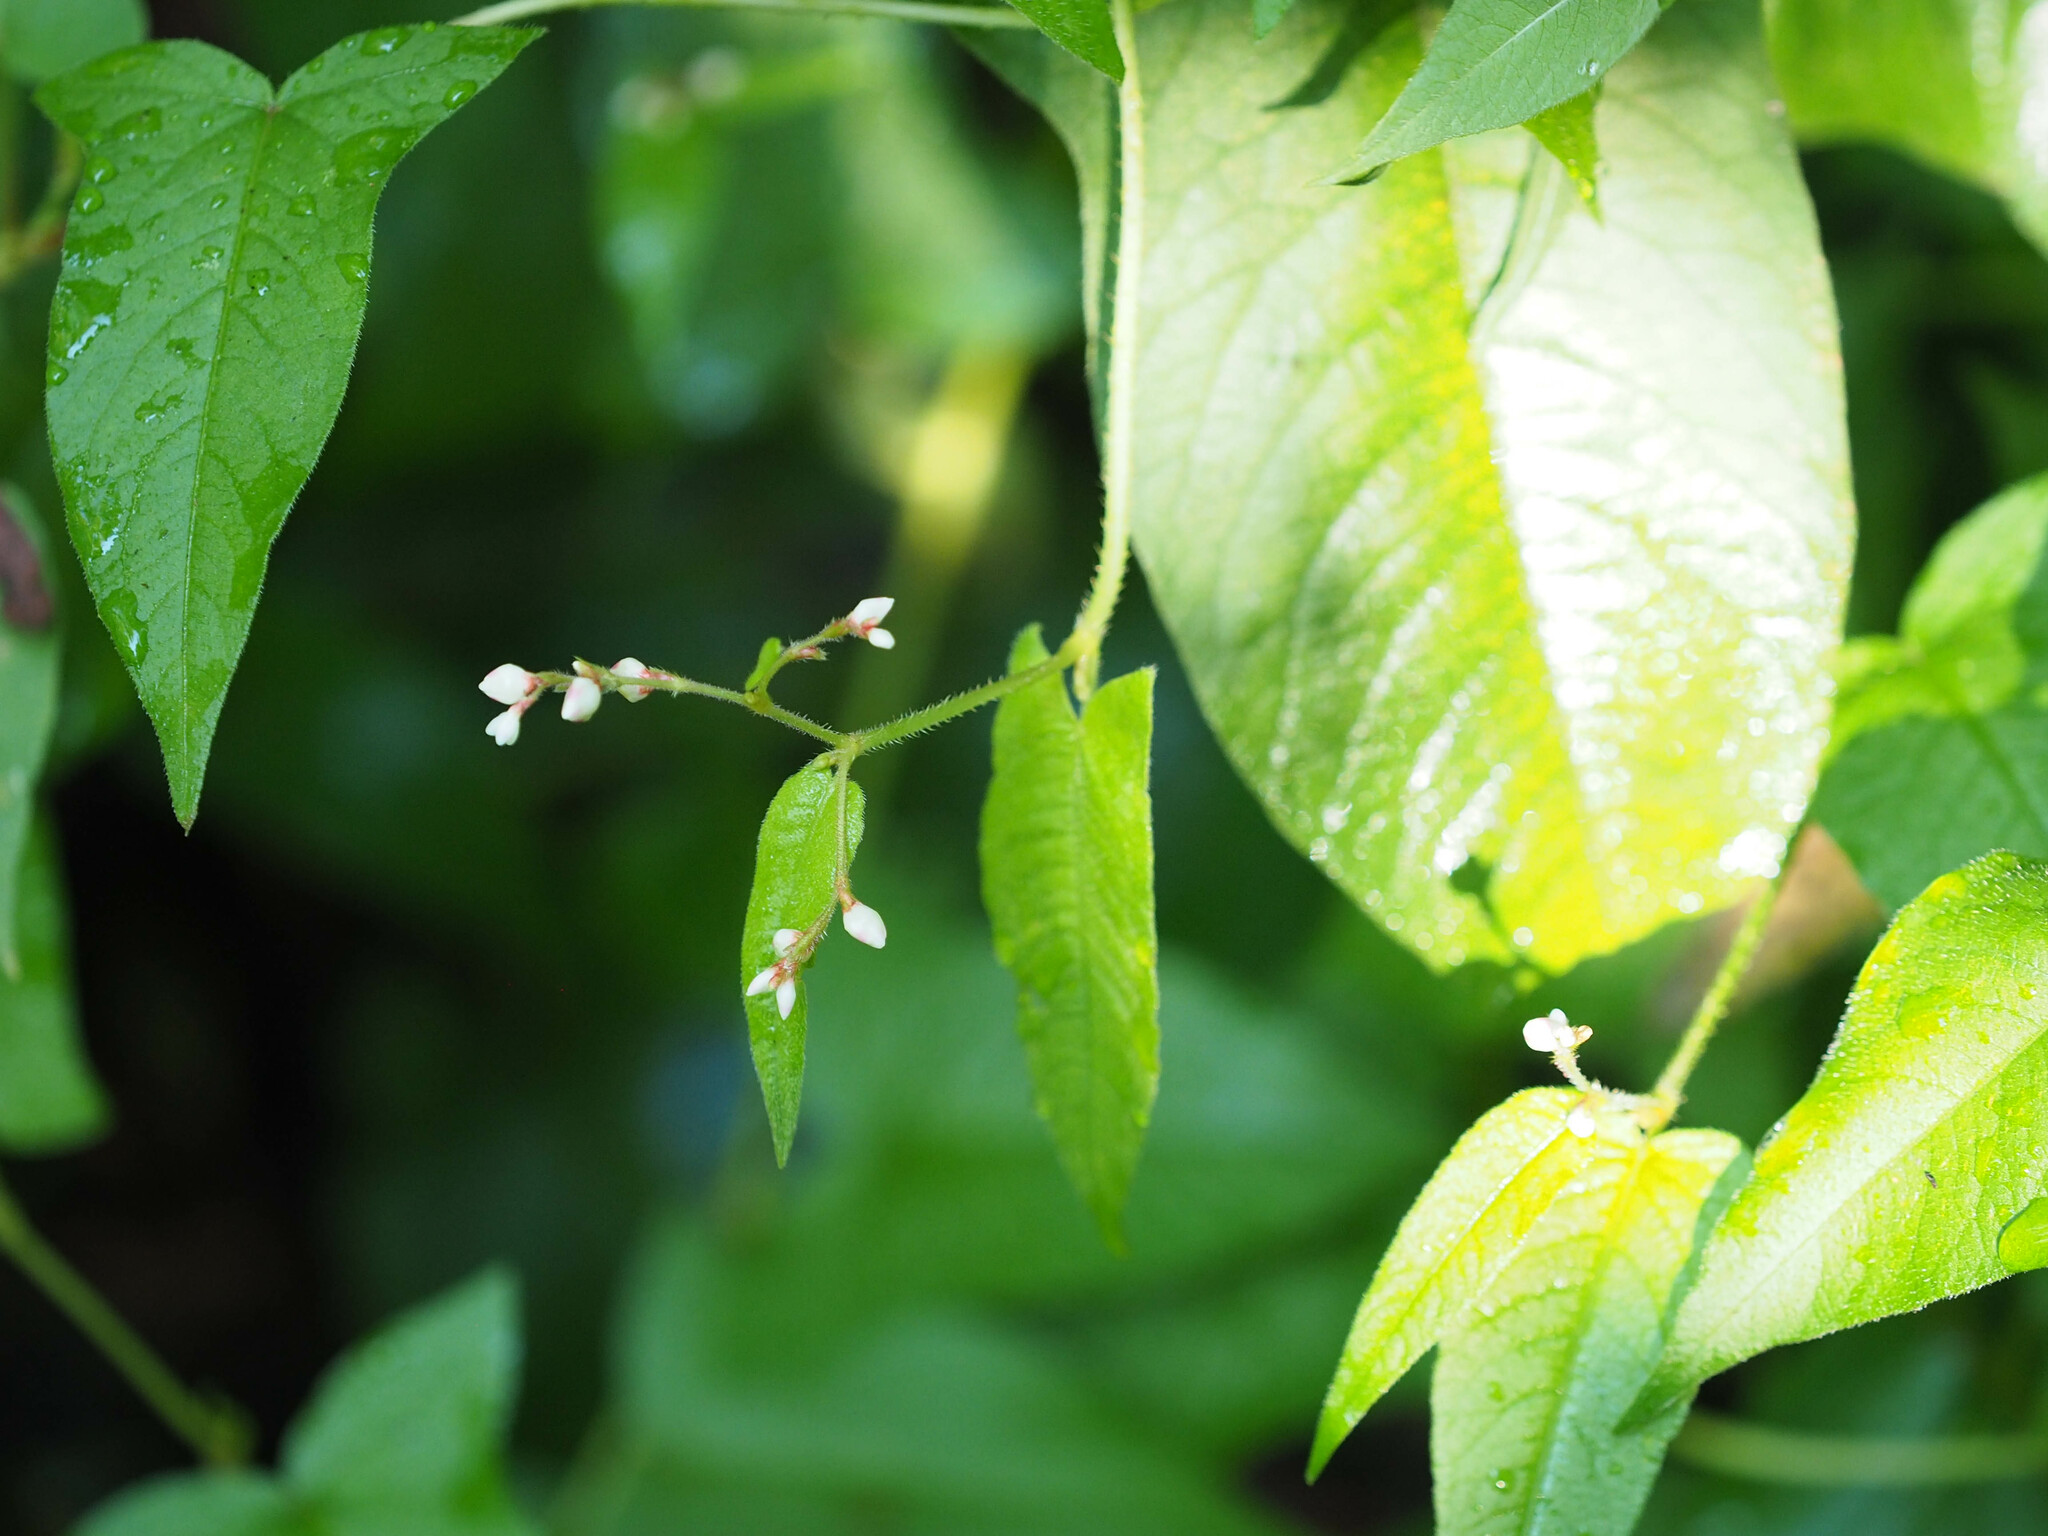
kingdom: Plantae
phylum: Tracheophyta
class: Magnoliopsida
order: Caryophyllales
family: Polygonaceae
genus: Persicaria
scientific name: Persicaria arifolia
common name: Halberd-leaved tear-thumb
